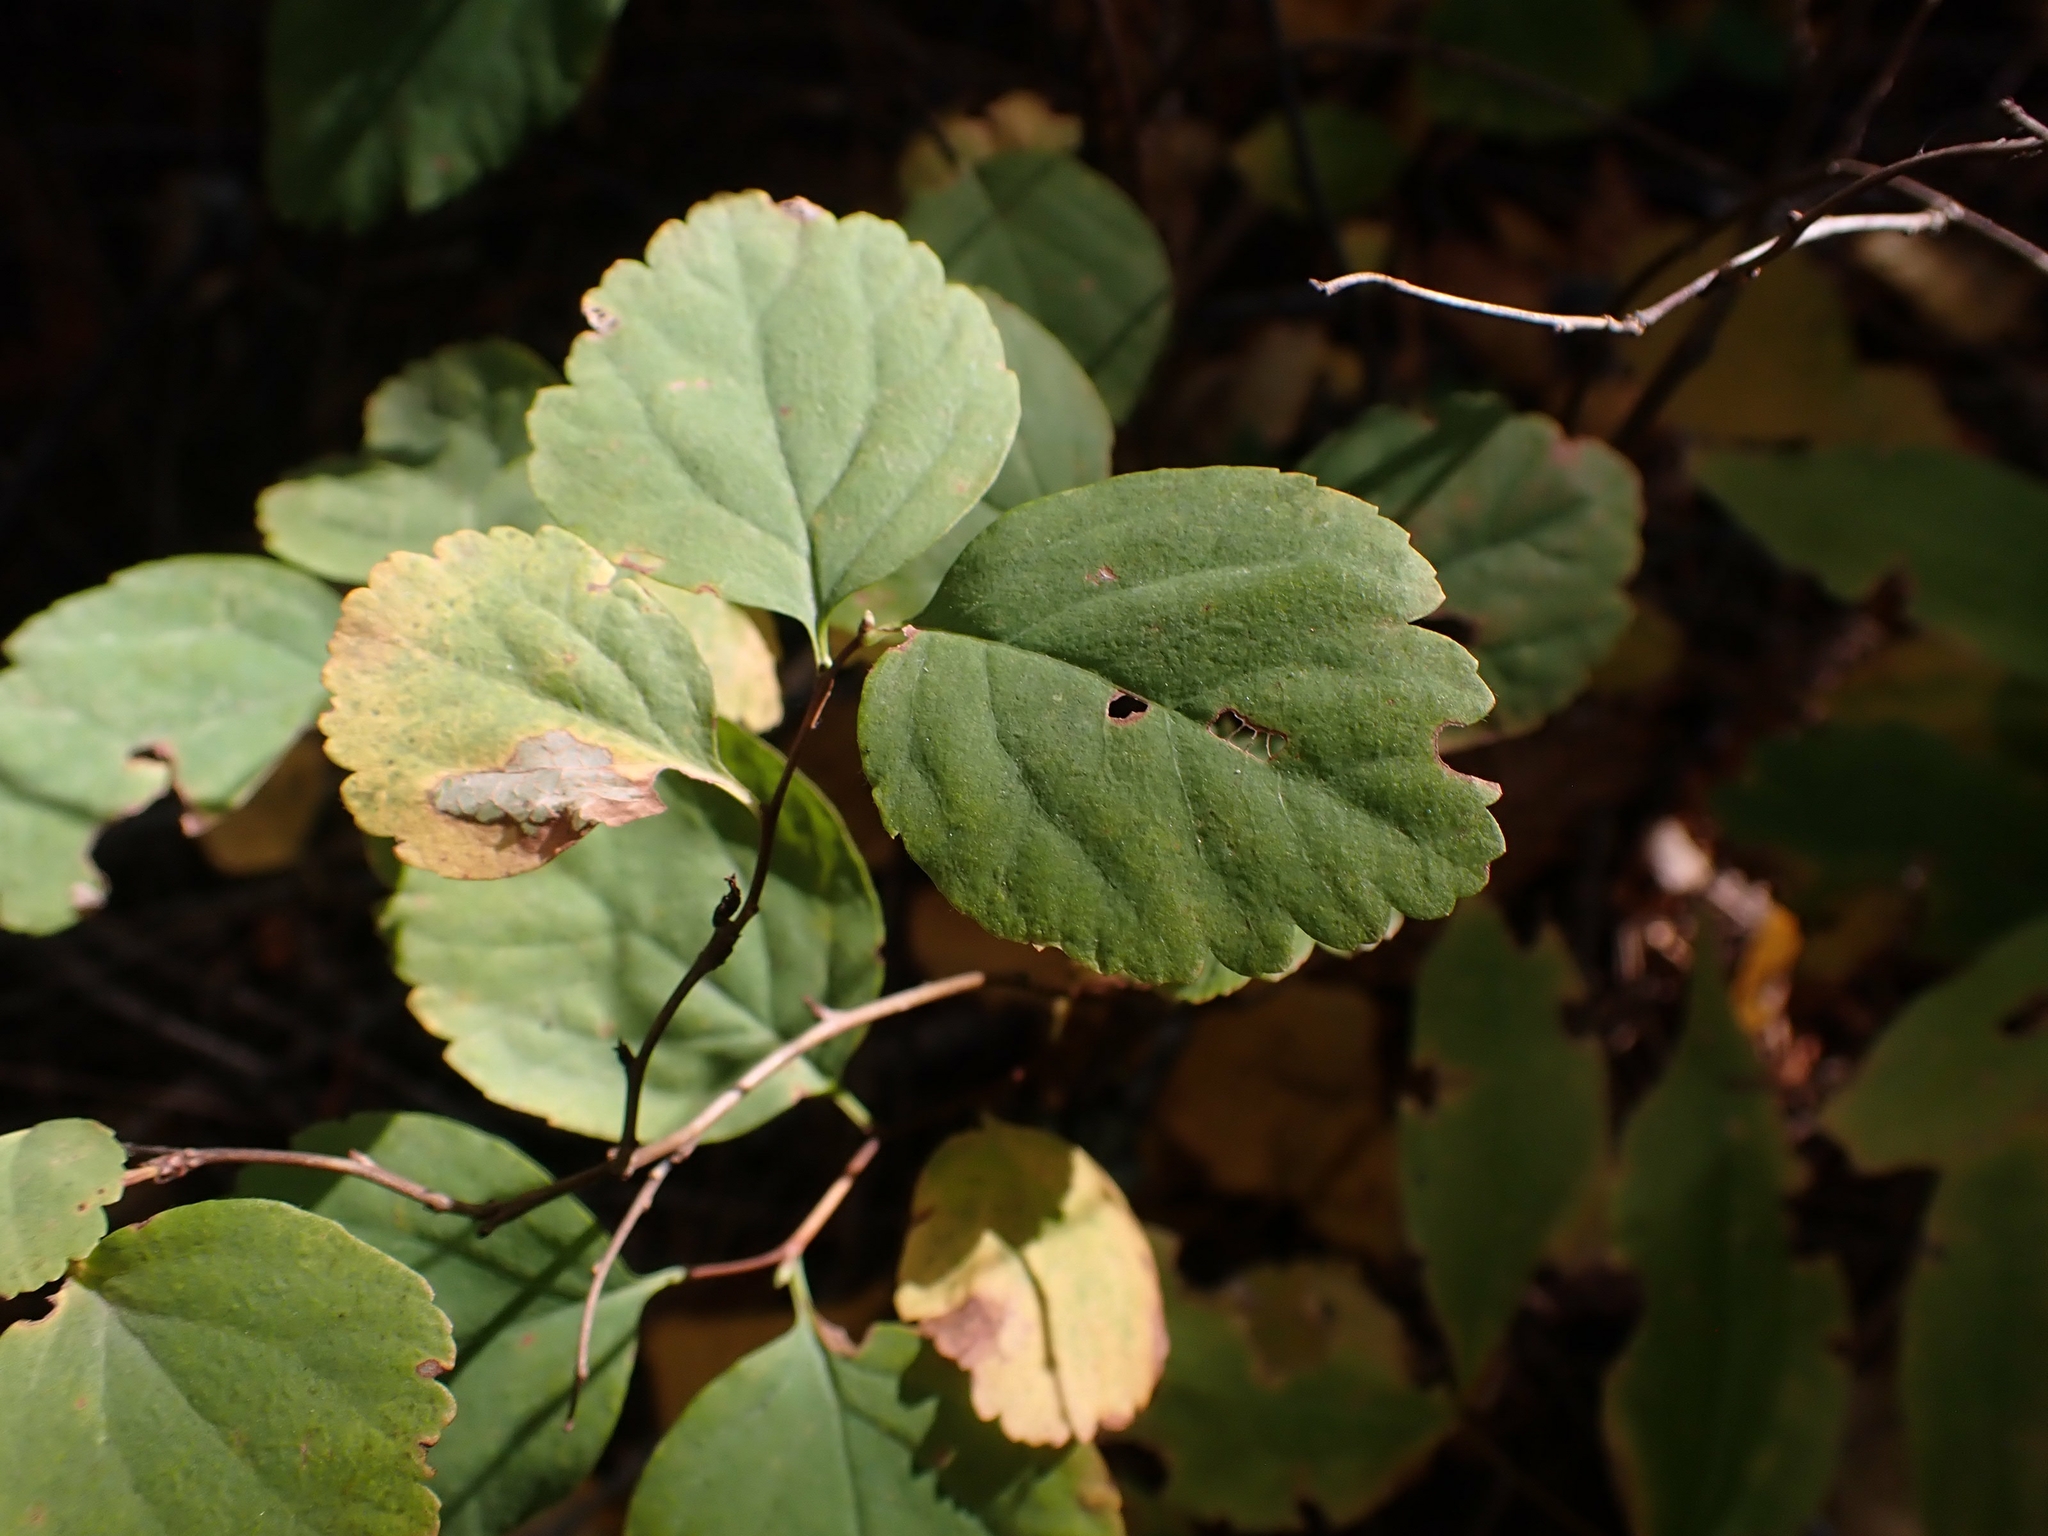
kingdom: Plantae
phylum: Tracheophyta
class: Magnoliopsida
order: Rosales
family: Rosaceae
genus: Spiraea
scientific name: Spiraea lucida
